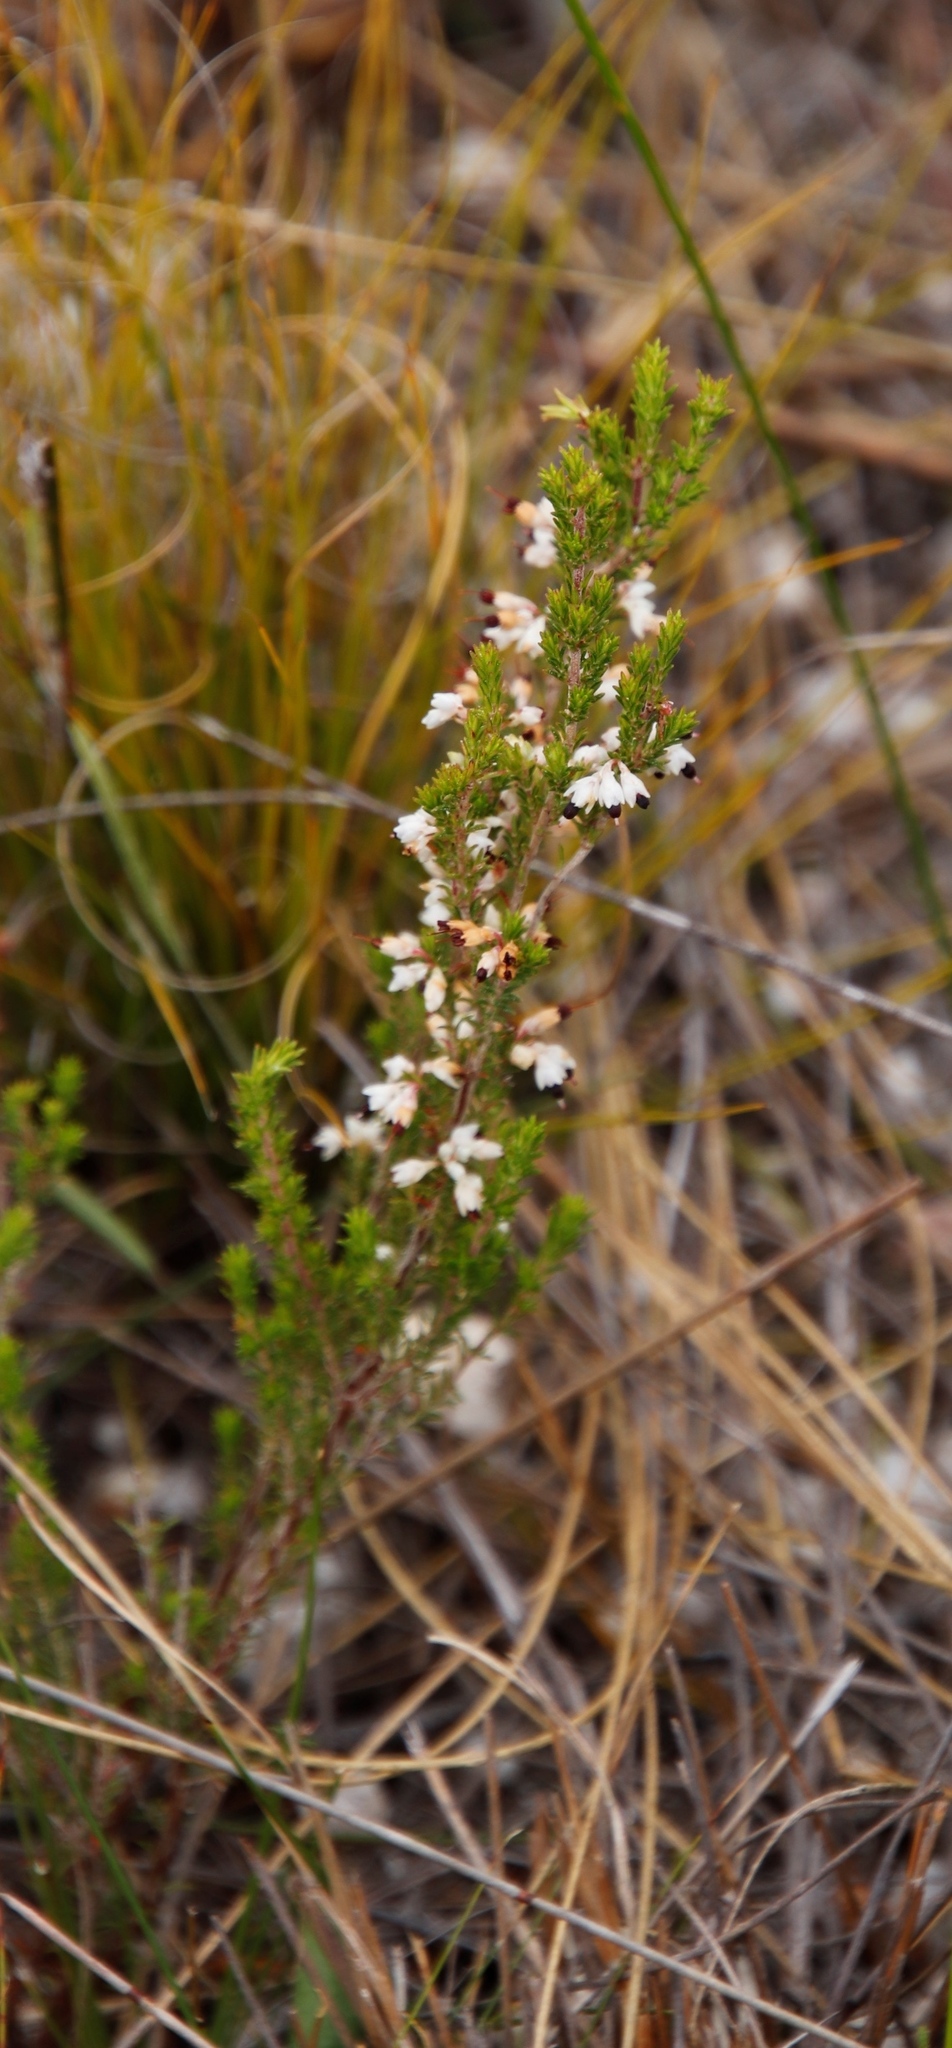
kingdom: Plantae
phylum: Tracheophyta
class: Magnoliopsida
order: Ericales
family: Ericaceae
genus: Erica
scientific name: Erica imbricata
